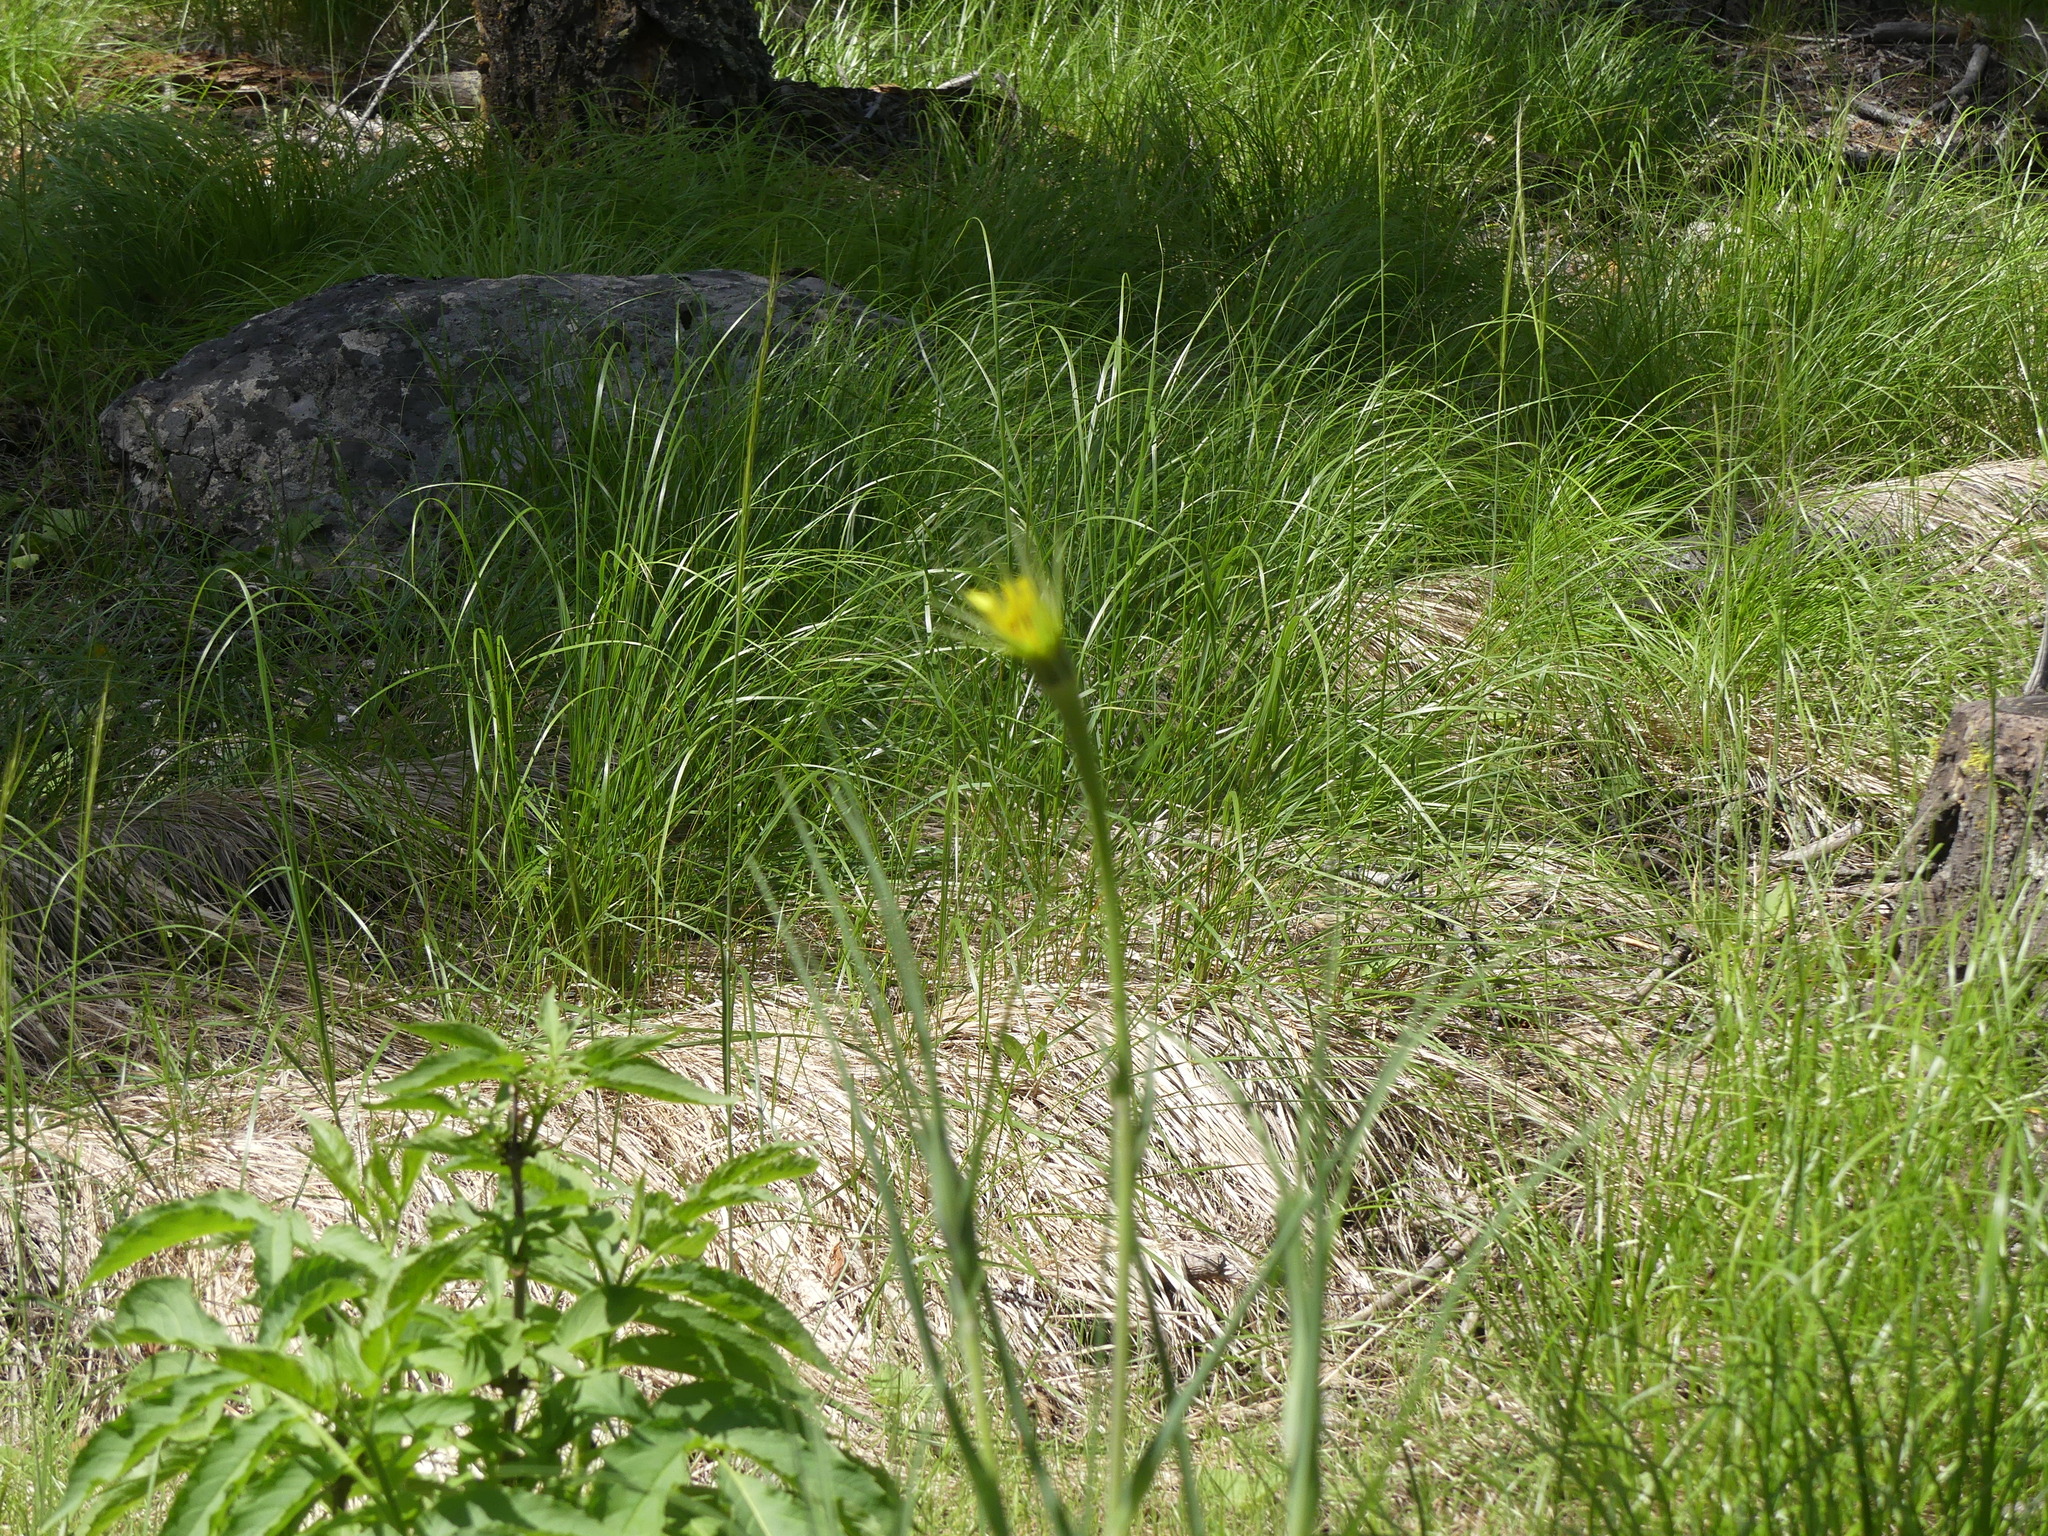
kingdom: Plantae
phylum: Tracheophyta
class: Magnoliopsida
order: Asterales
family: Asteraceae
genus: Tragopogon
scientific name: Tragopogon dubius
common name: Yellow salsify
